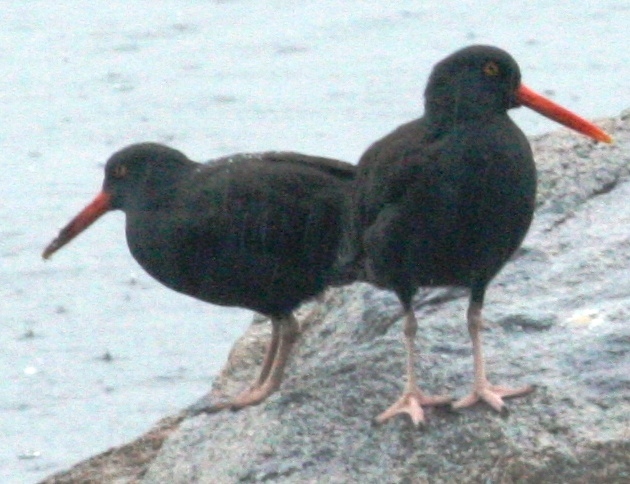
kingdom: Animalia
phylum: Chordata
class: Aves
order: Charadriiformes
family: Haematopodidae
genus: Haematopus
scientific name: Haematopus bachmani
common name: Black oystercatcher
